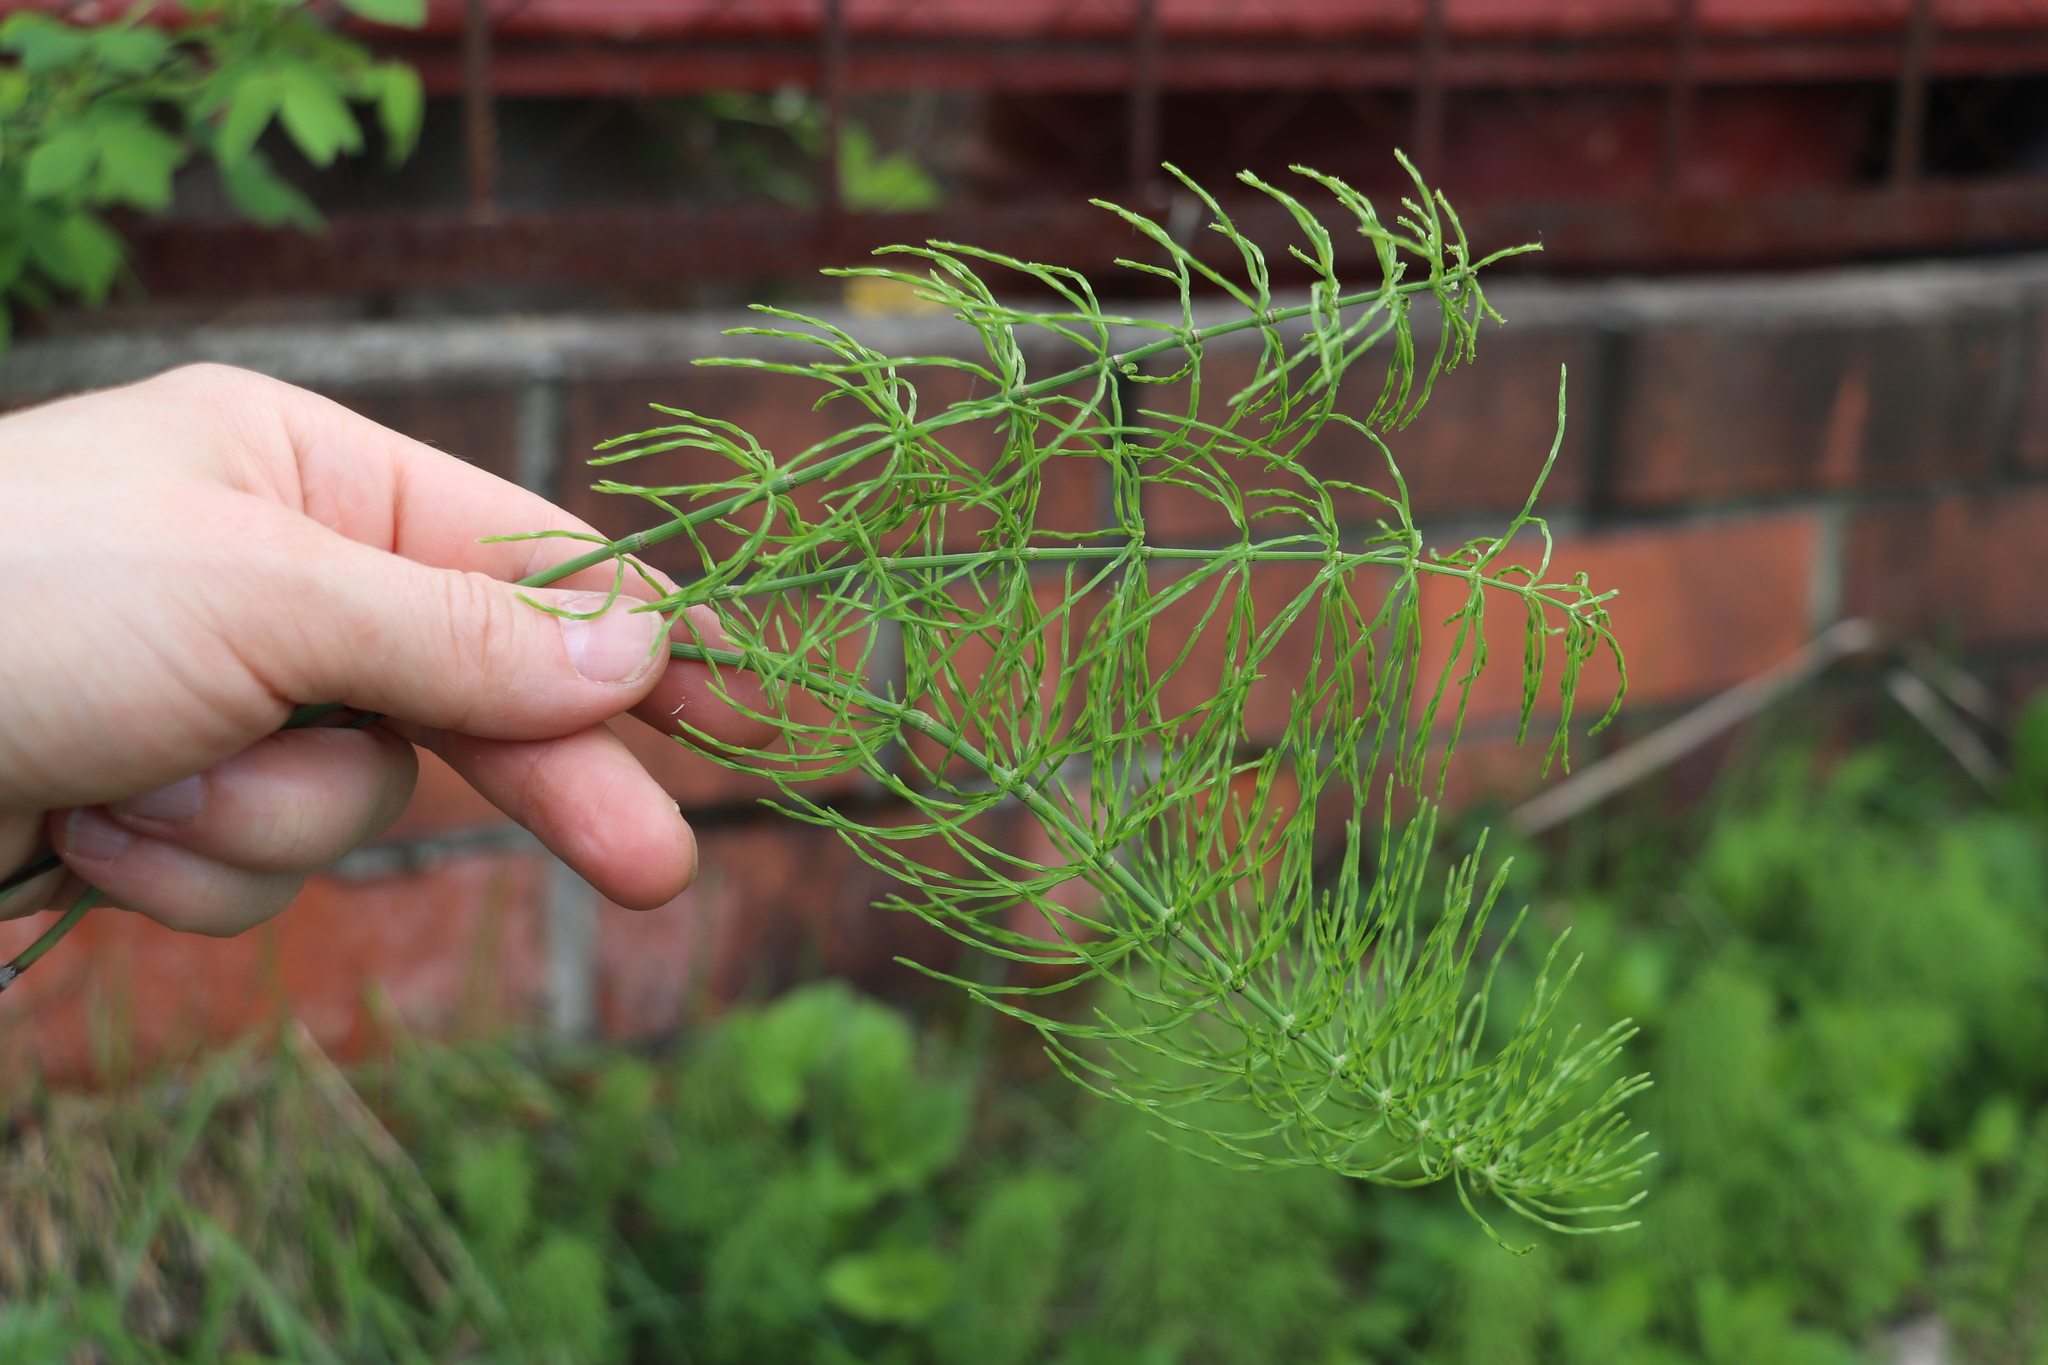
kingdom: Plantae
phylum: Tracheophyta
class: Polypodiopsida
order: Equisetales
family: Equisetaceae
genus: Equisetum
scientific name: Equisetum pratense
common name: Meadow horsetail
